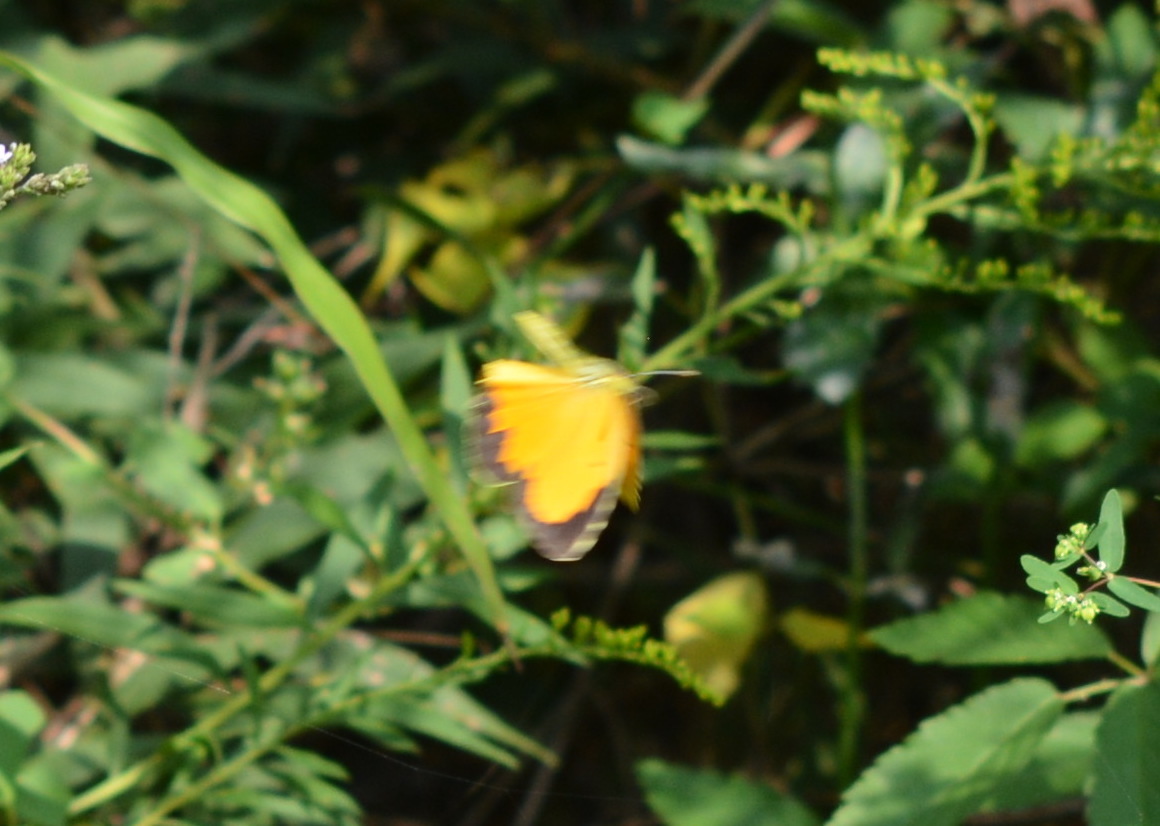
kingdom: Animalia
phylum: Arthropoda
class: Insecta
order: Lepidoptera
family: Pieridae
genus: Abaeis
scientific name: Abaeis nicippe
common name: Sleepy orange
